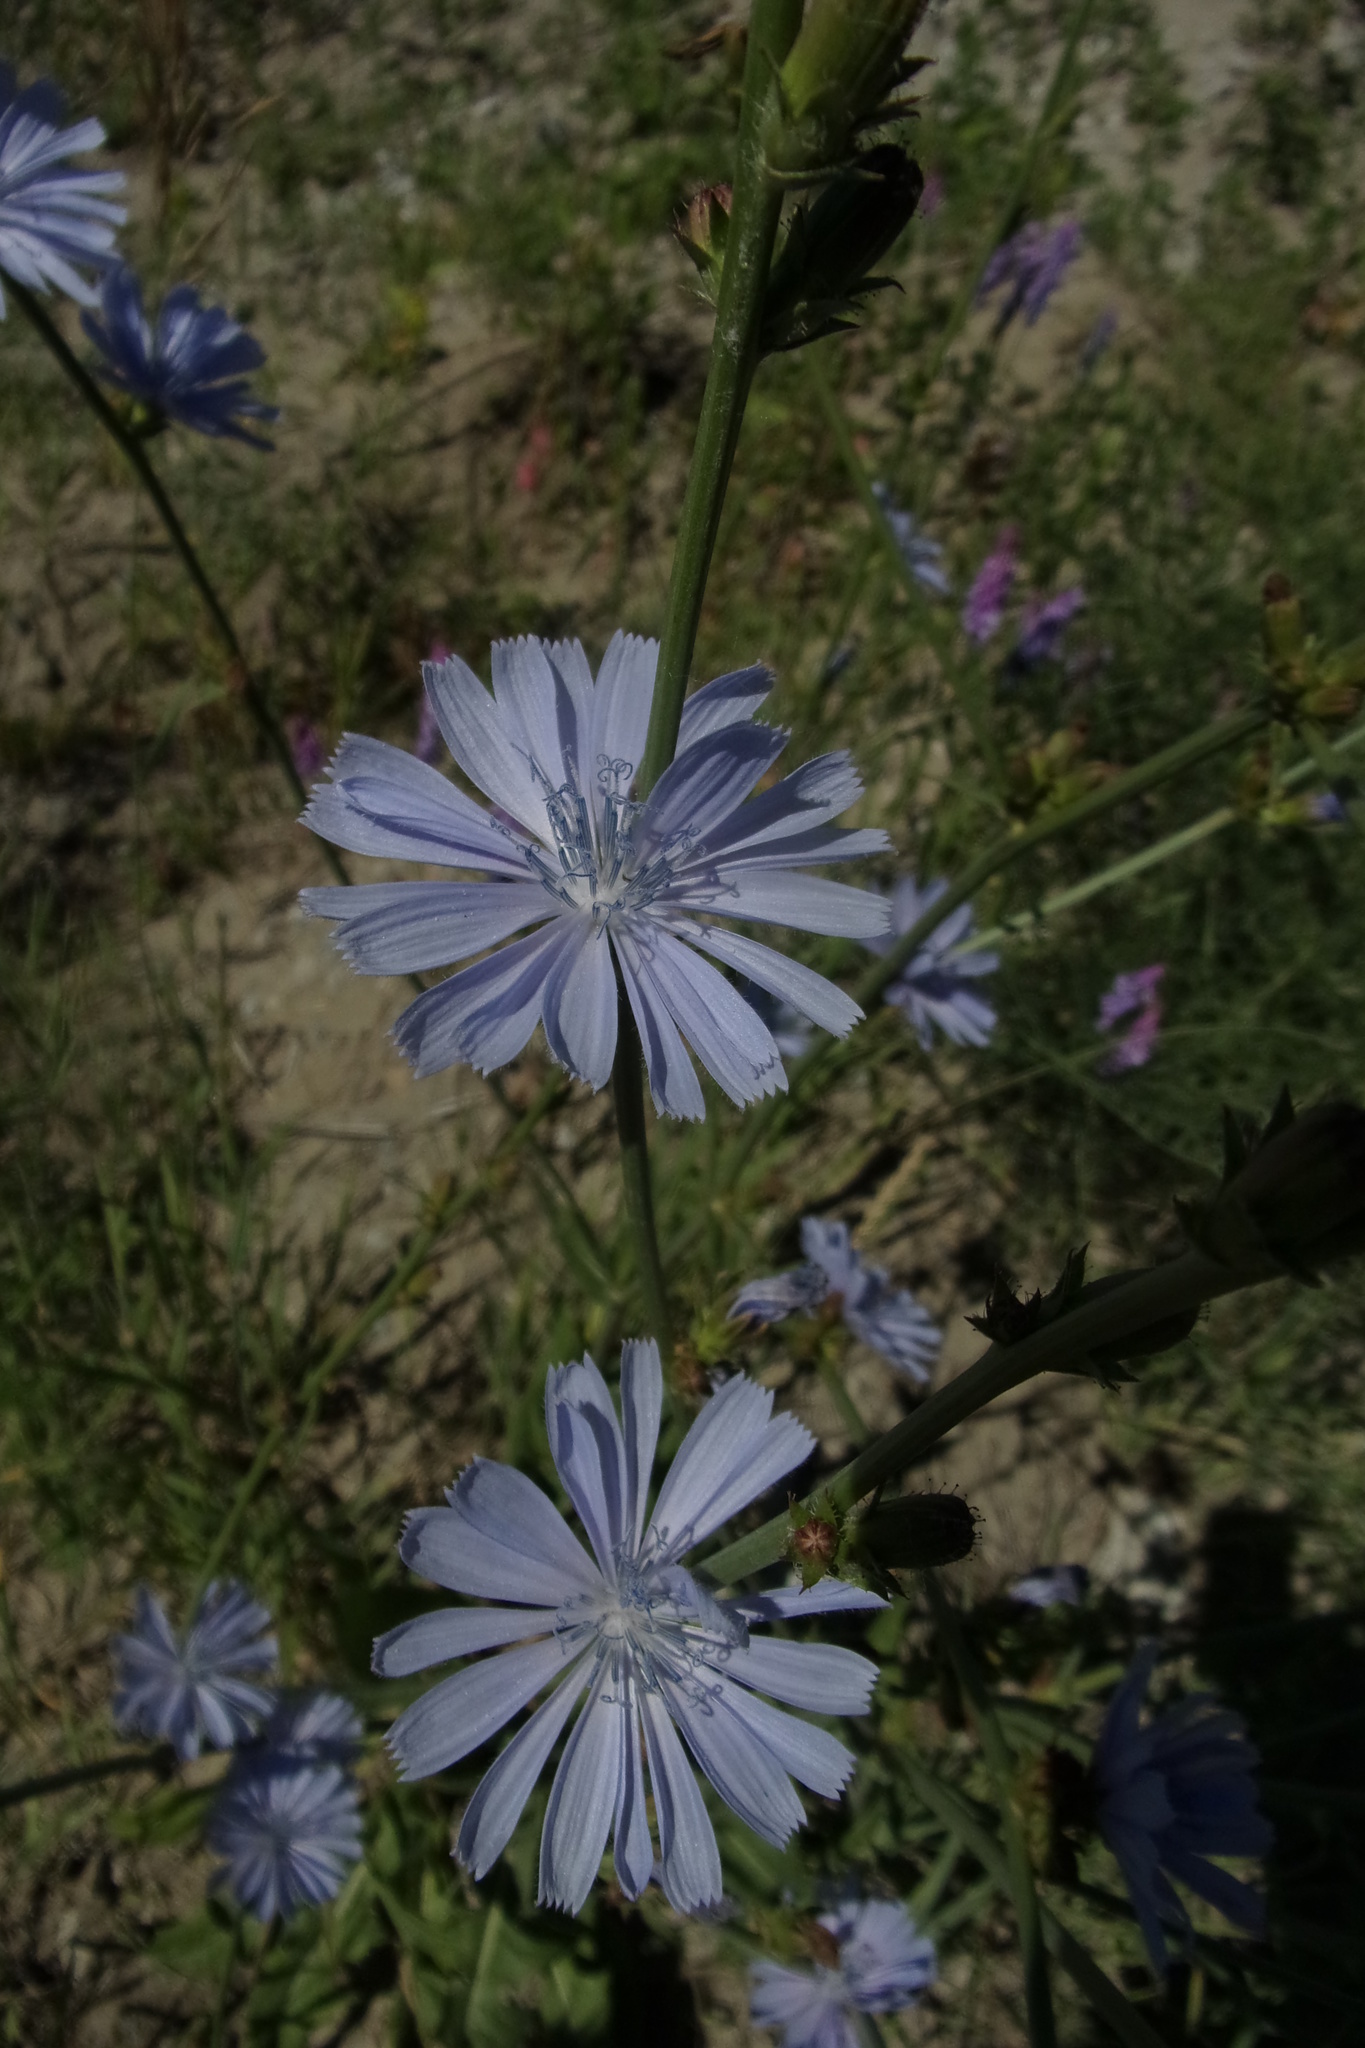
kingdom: Plantae
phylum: Tracheophyta
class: Magnoliopsida
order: Asterales
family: Asteraceae
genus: Cichorium
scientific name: Cichorium intybus
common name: Chicory
